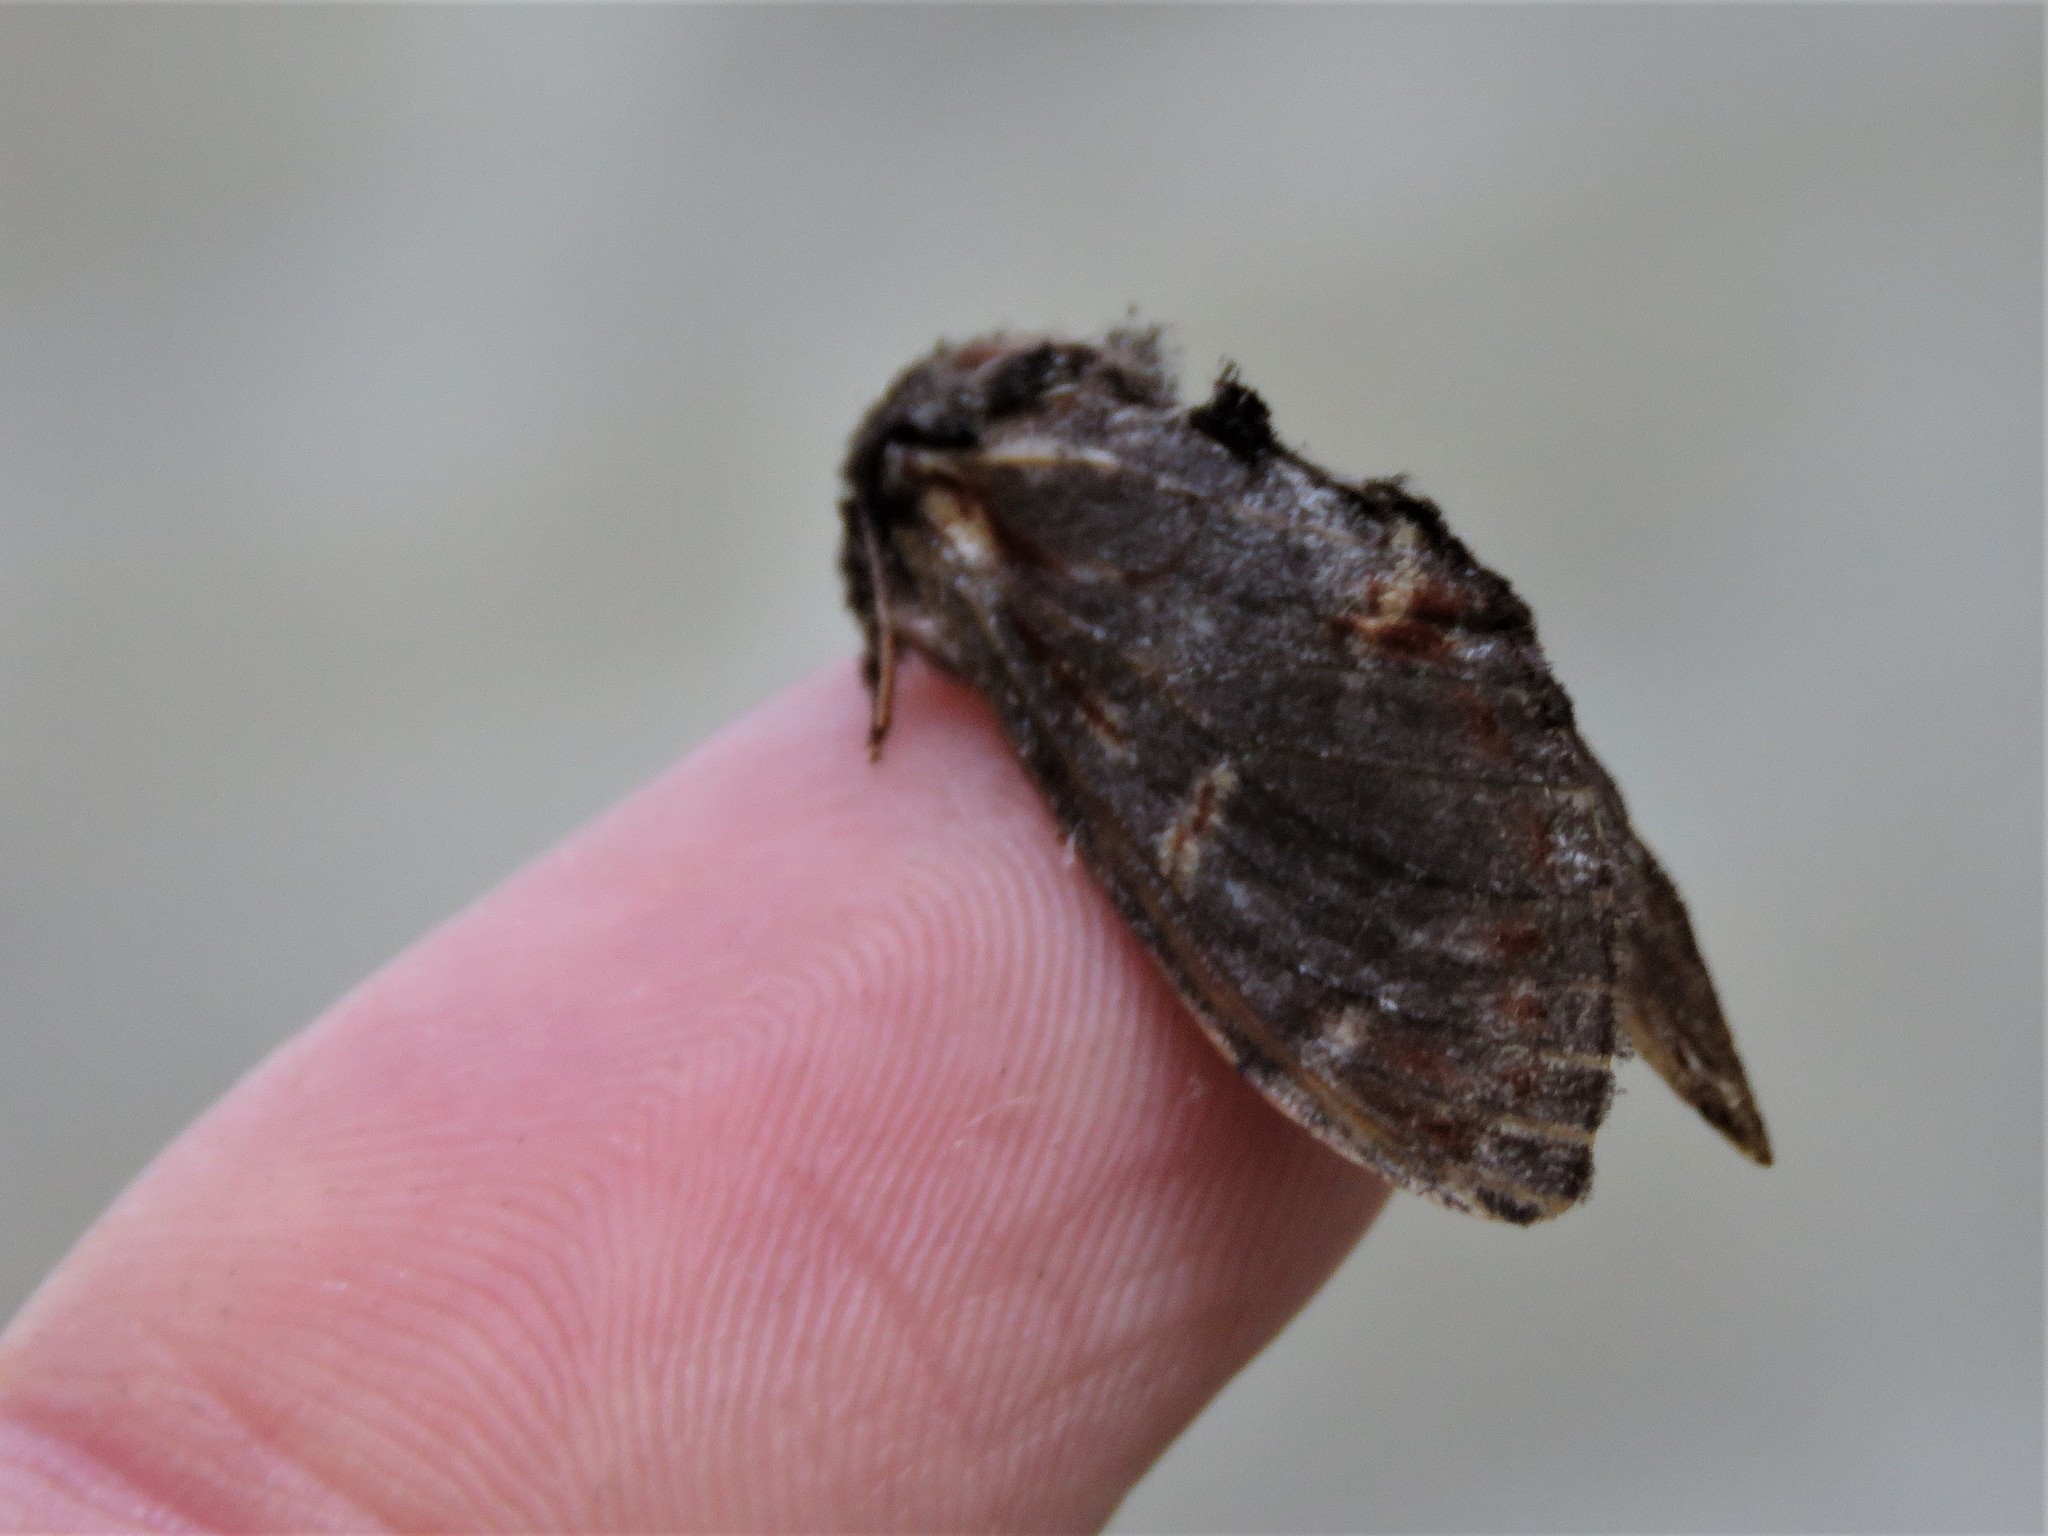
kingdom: Animalia
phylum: Arthropoda
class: Insecta
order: Lepidoptera
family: Notodontidae
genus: Notodonta
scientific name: Notodonta dromedarius
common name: Iron prominent
